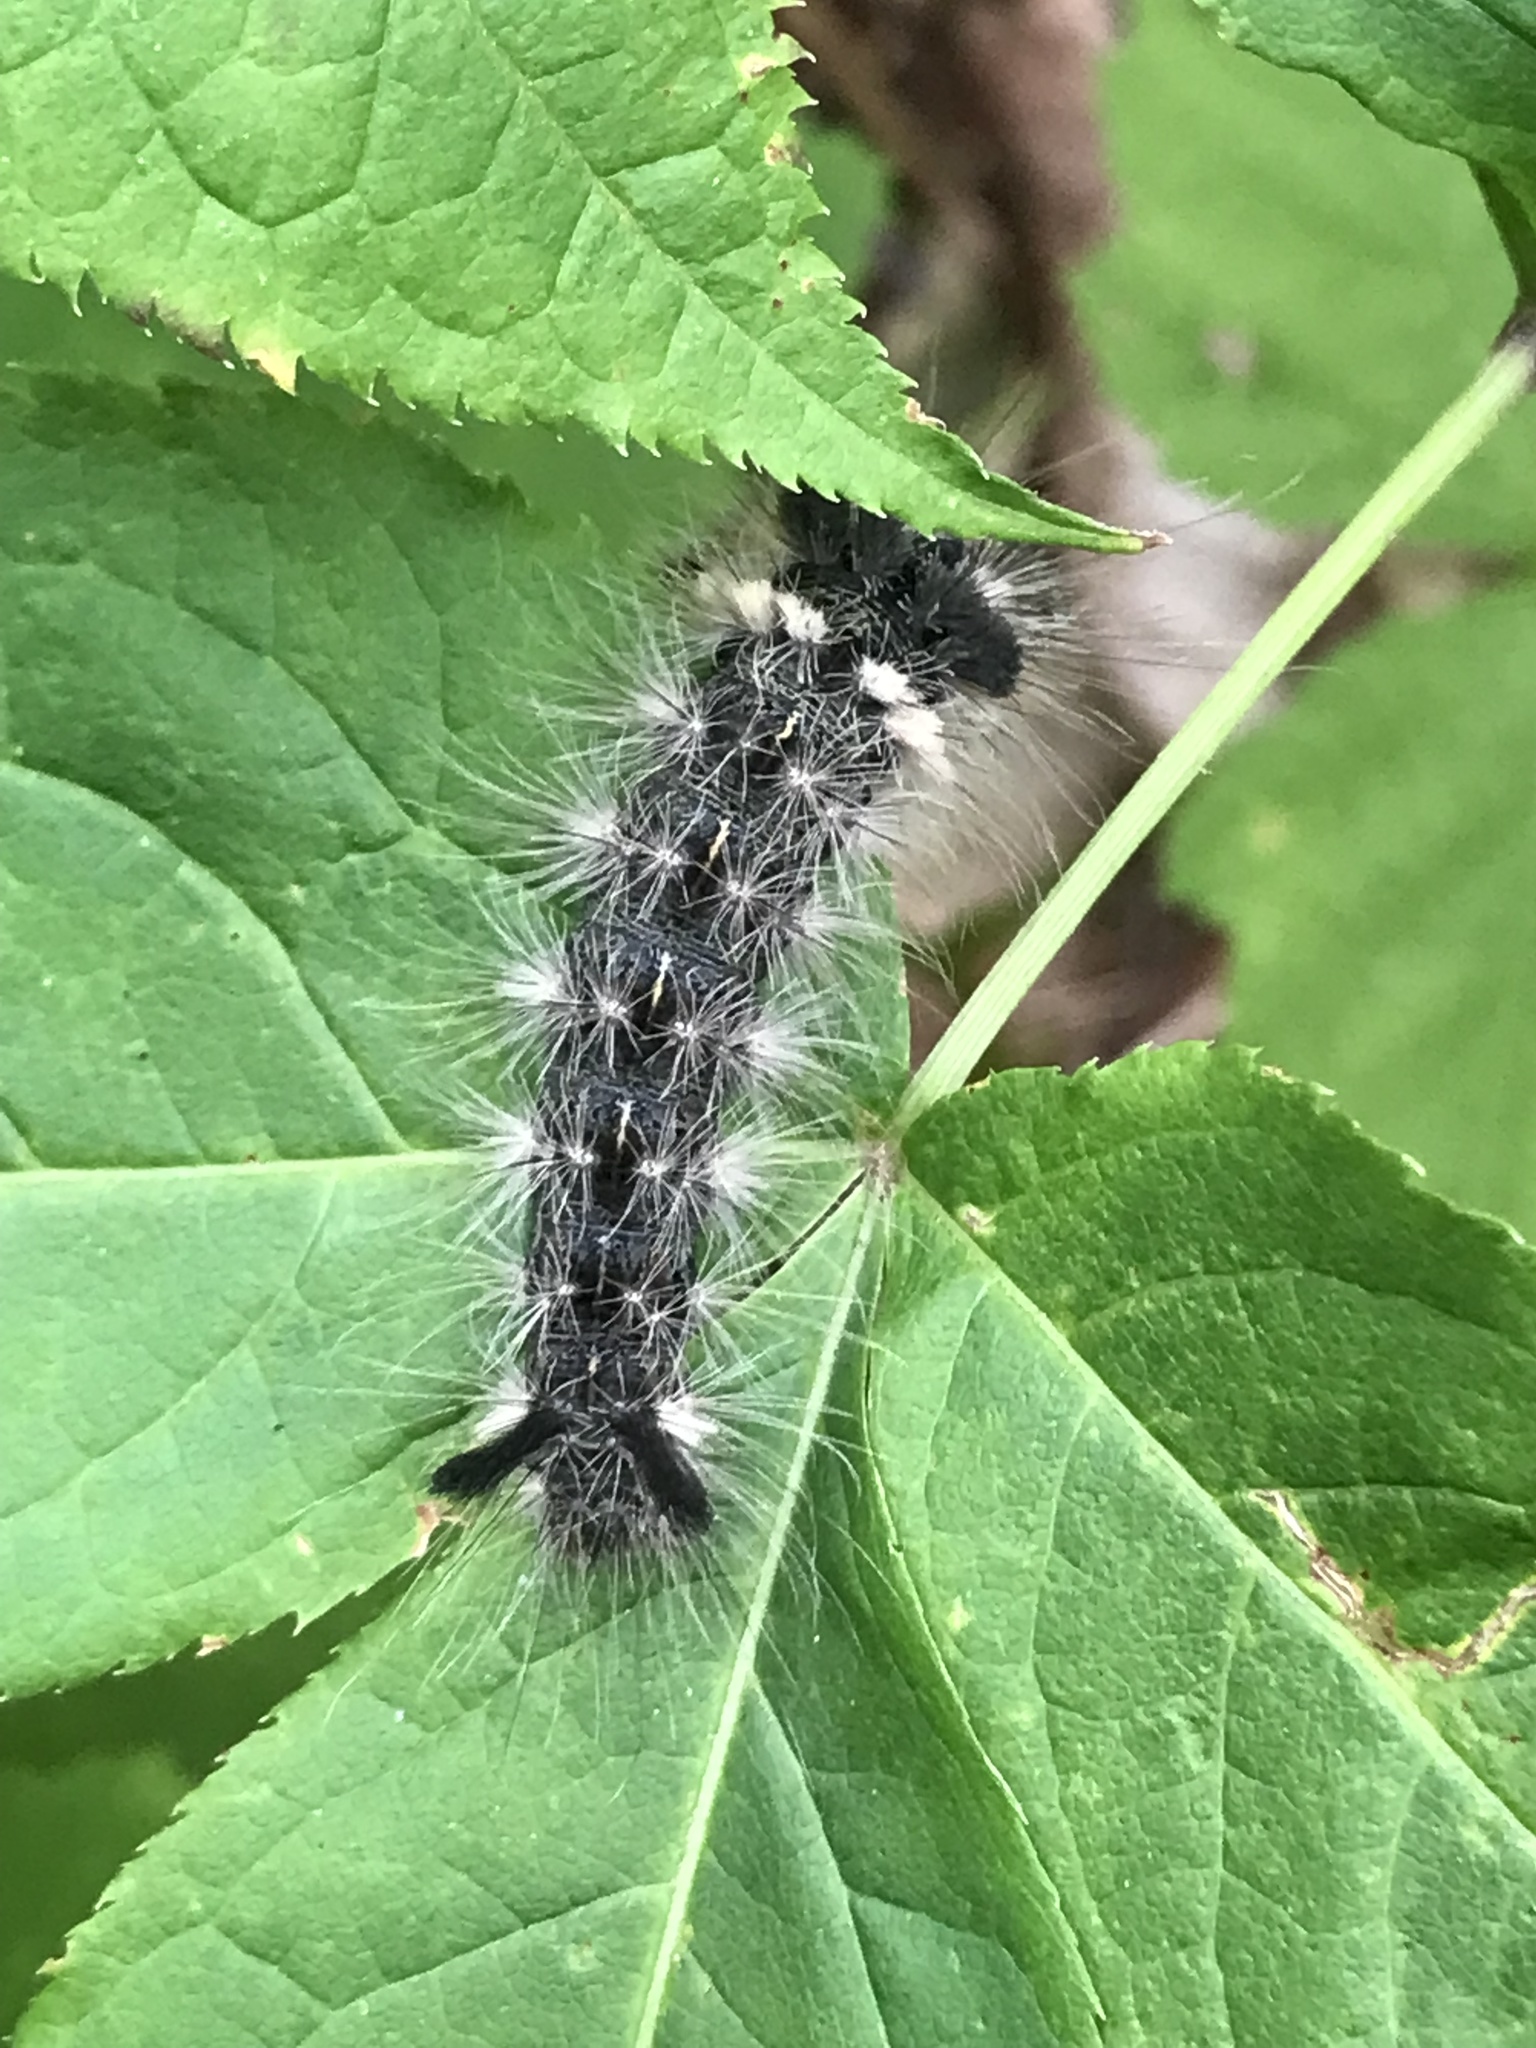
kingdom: Animalia
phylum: Arthropoda
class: Insecta
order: Lepidoptera
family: Noctuidae
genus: Acronicta
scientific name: Acronicta impleta
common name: Powdered dagger
